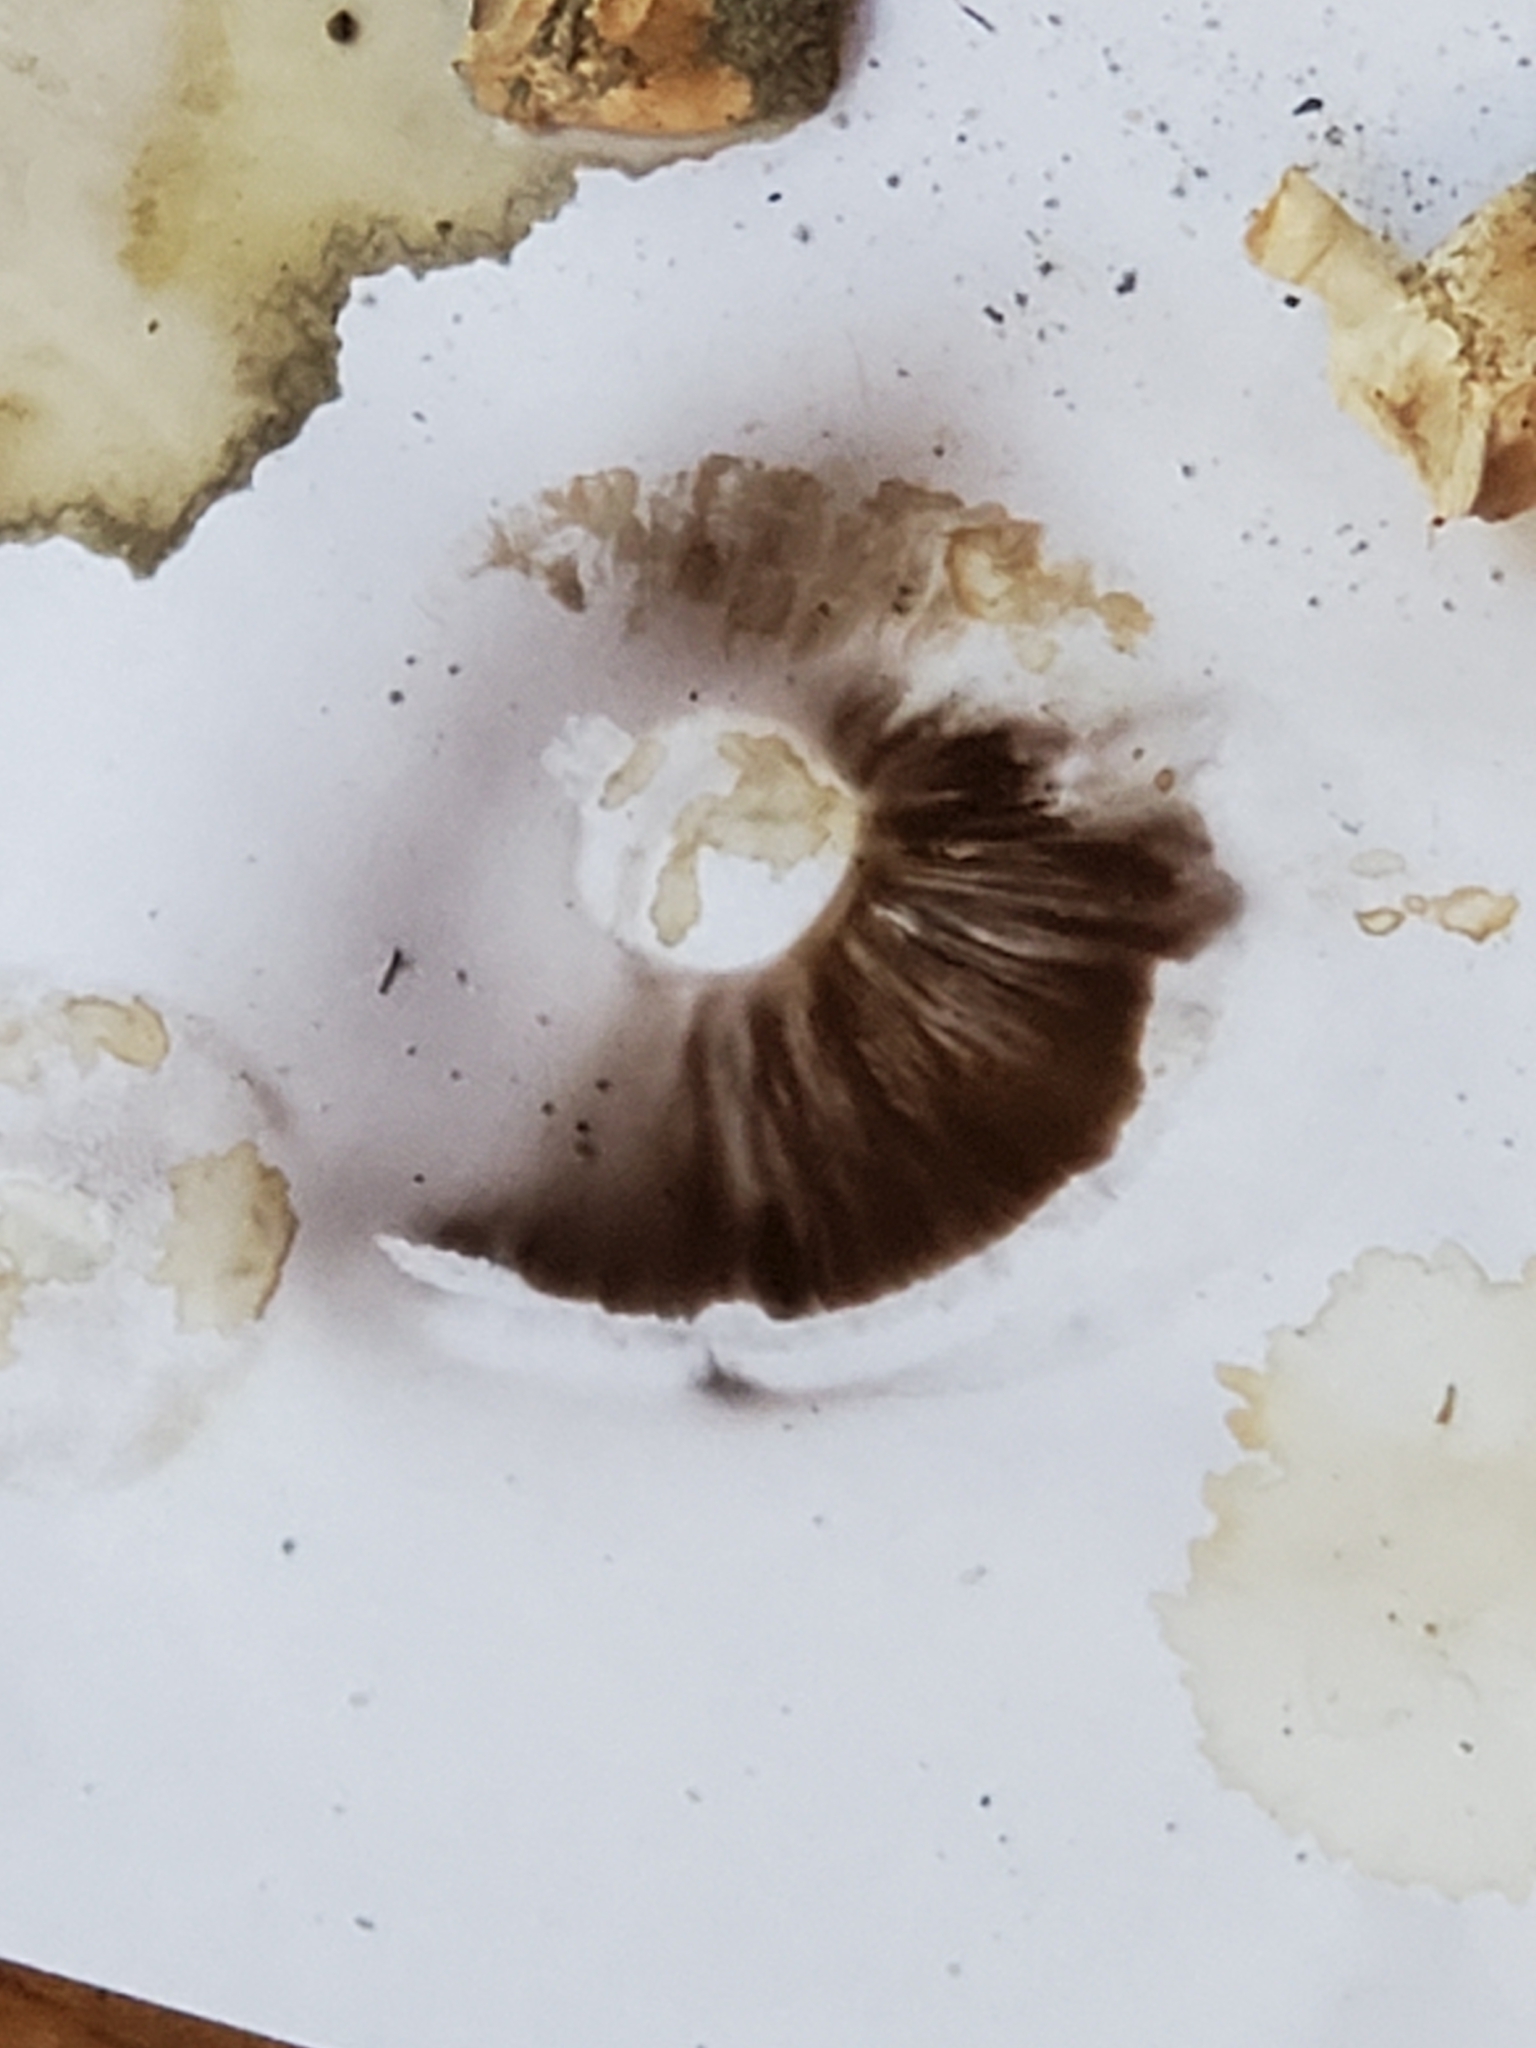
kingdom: Fungi
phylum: Basidiomycota
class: Agaricomycetes
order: Agaricales
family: Agaricaceae
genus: Agaricus
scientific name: Agaricus bitorquis
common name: Pavement mushroom
